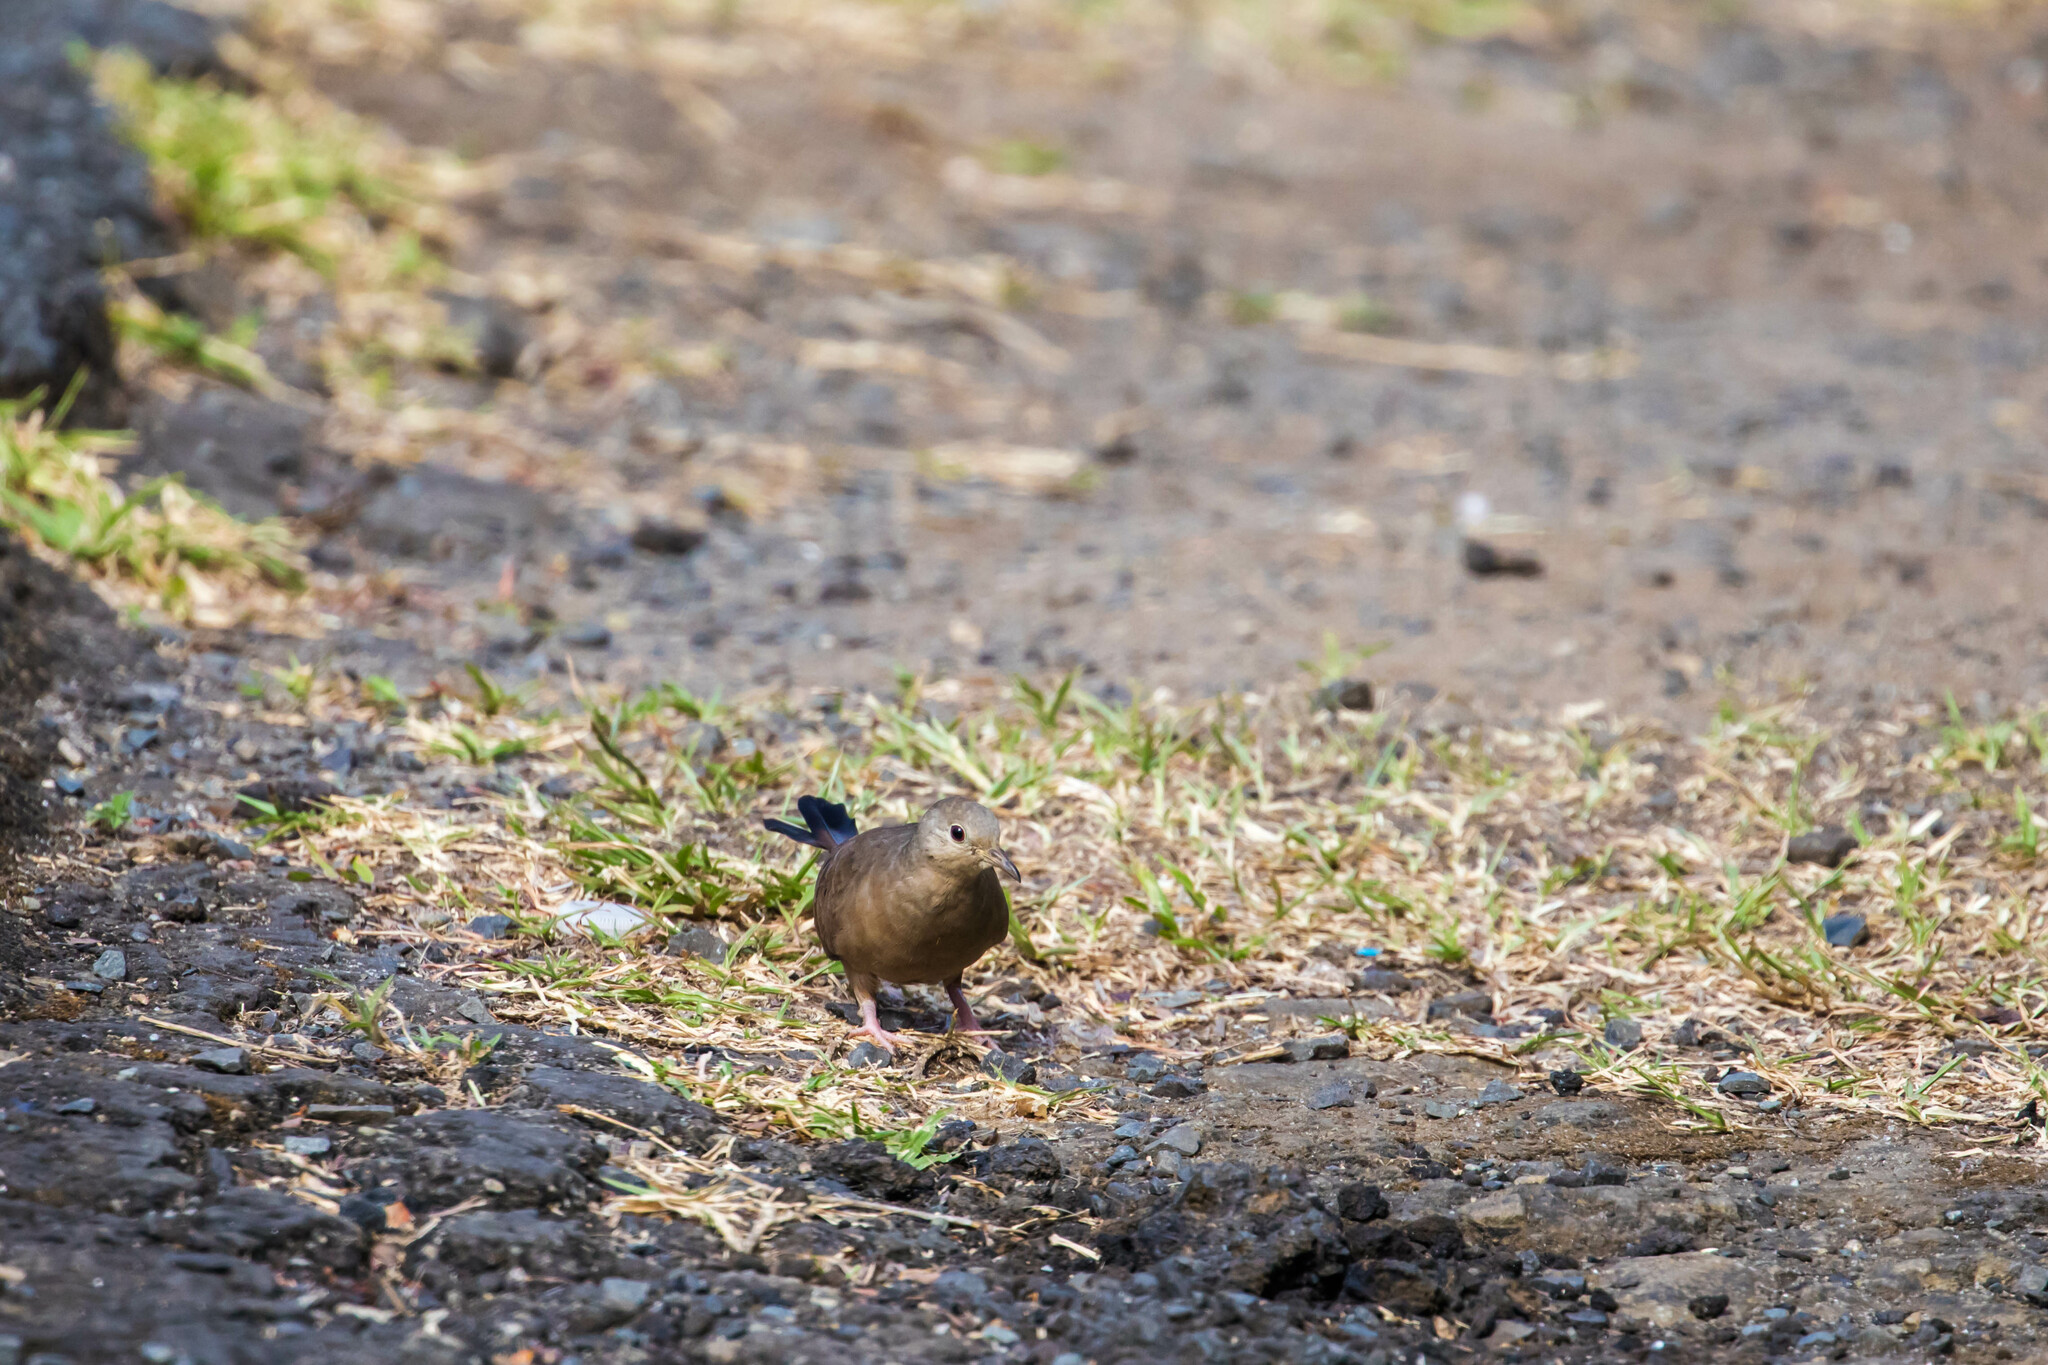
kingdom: Animalia
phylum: Chordata
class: Aves
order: Columbiformes
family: Columbidae
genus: Columbina
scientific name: Columbina talpacoti
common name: Ruddy ground dove
